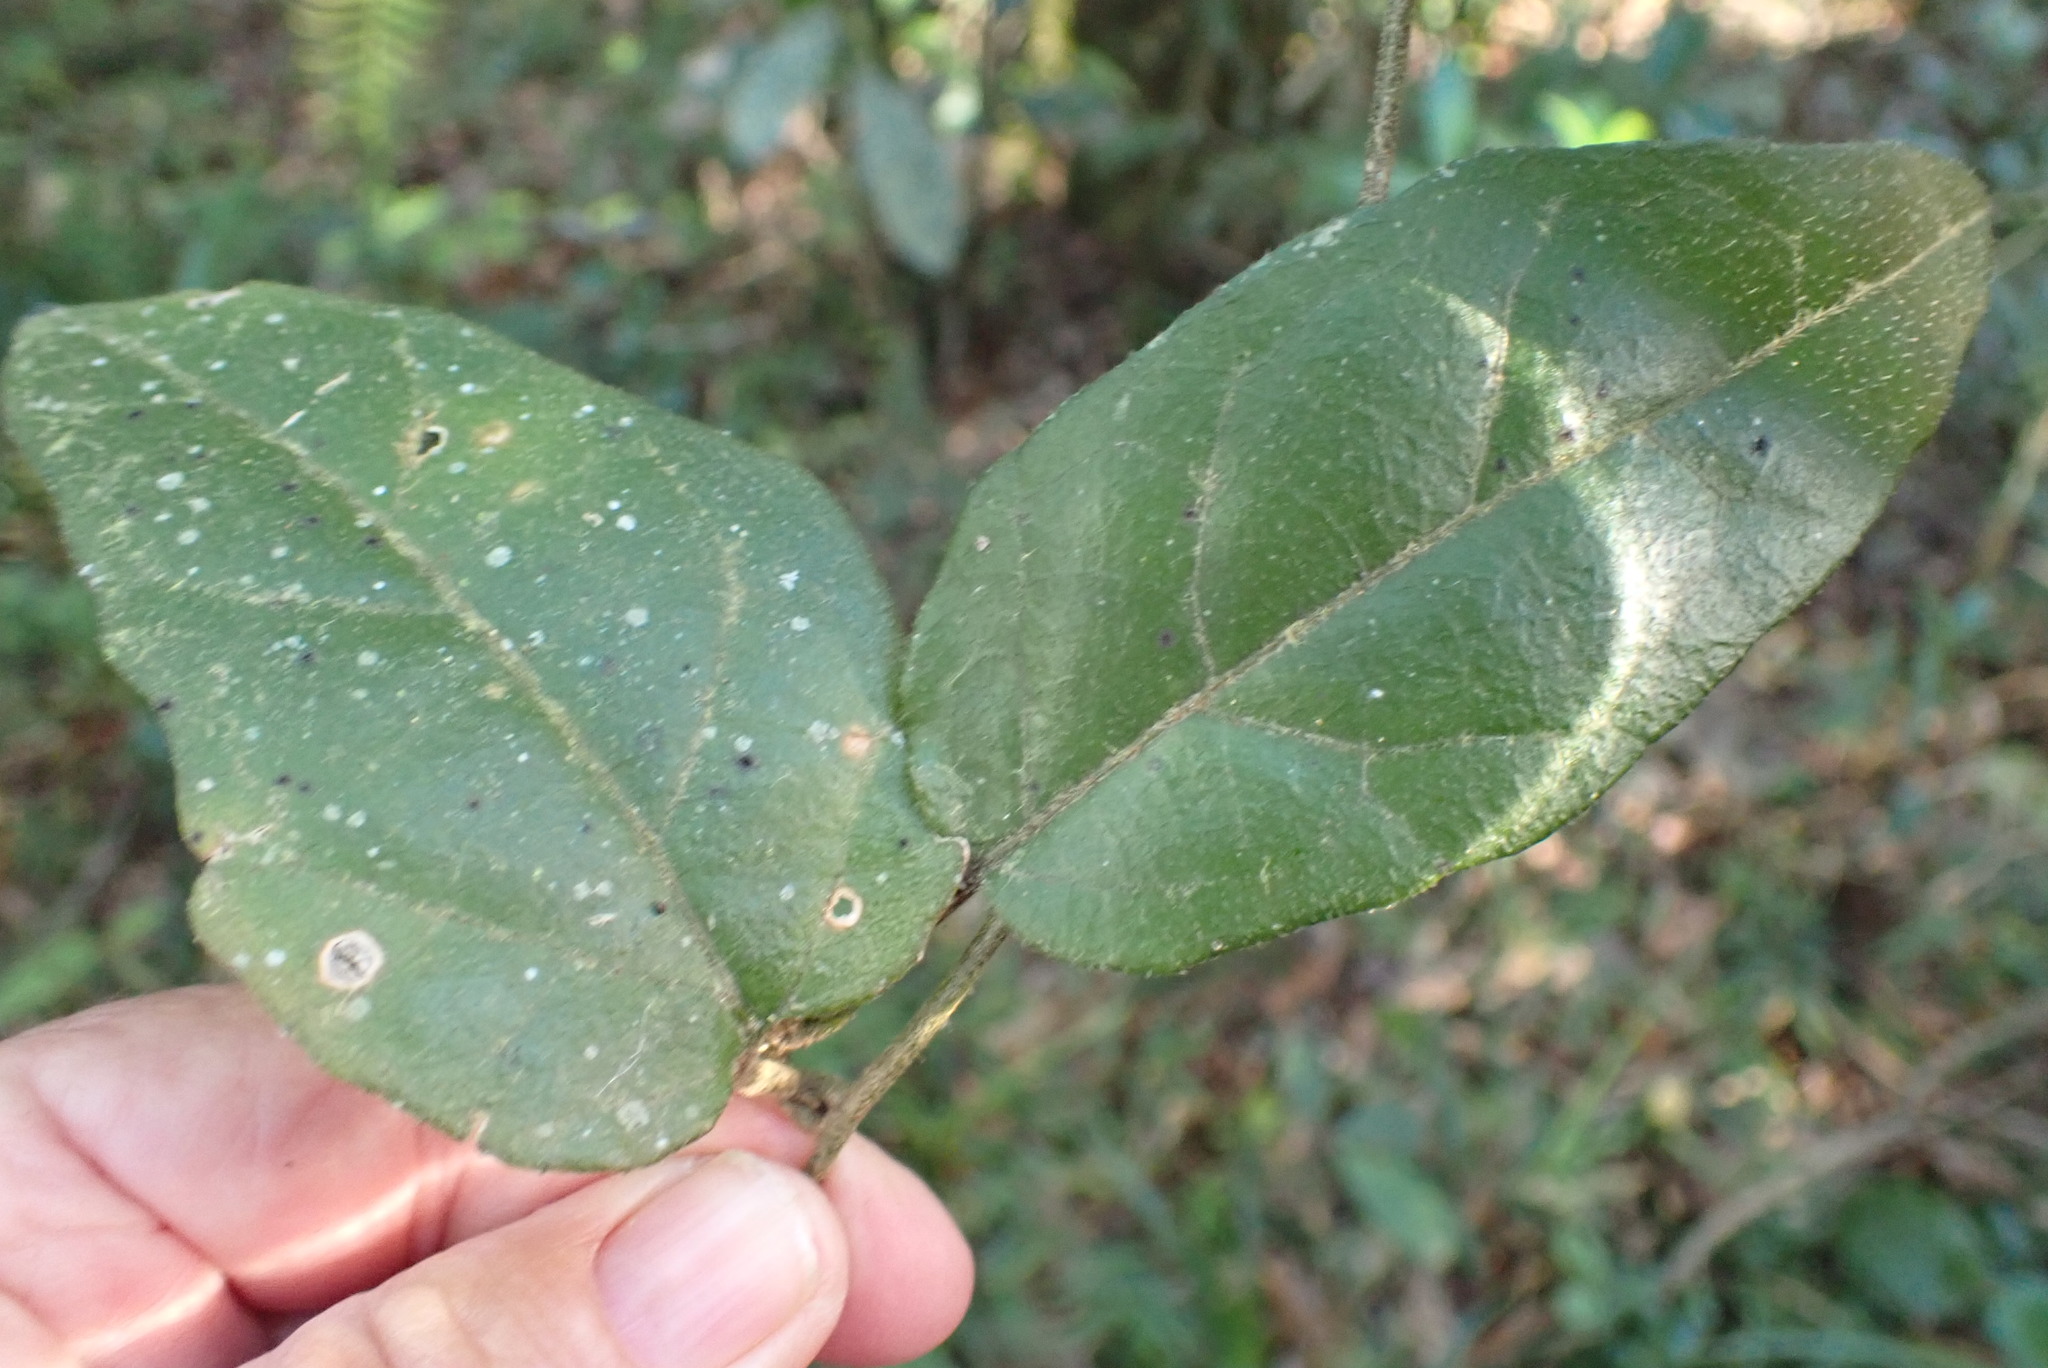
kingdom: Plantae
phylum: Tracheophyta
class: Magnoliopsida
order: Icacinales
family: Icacinaceae
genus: Pyrenacantha
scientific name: Pyrenacantha scandens
